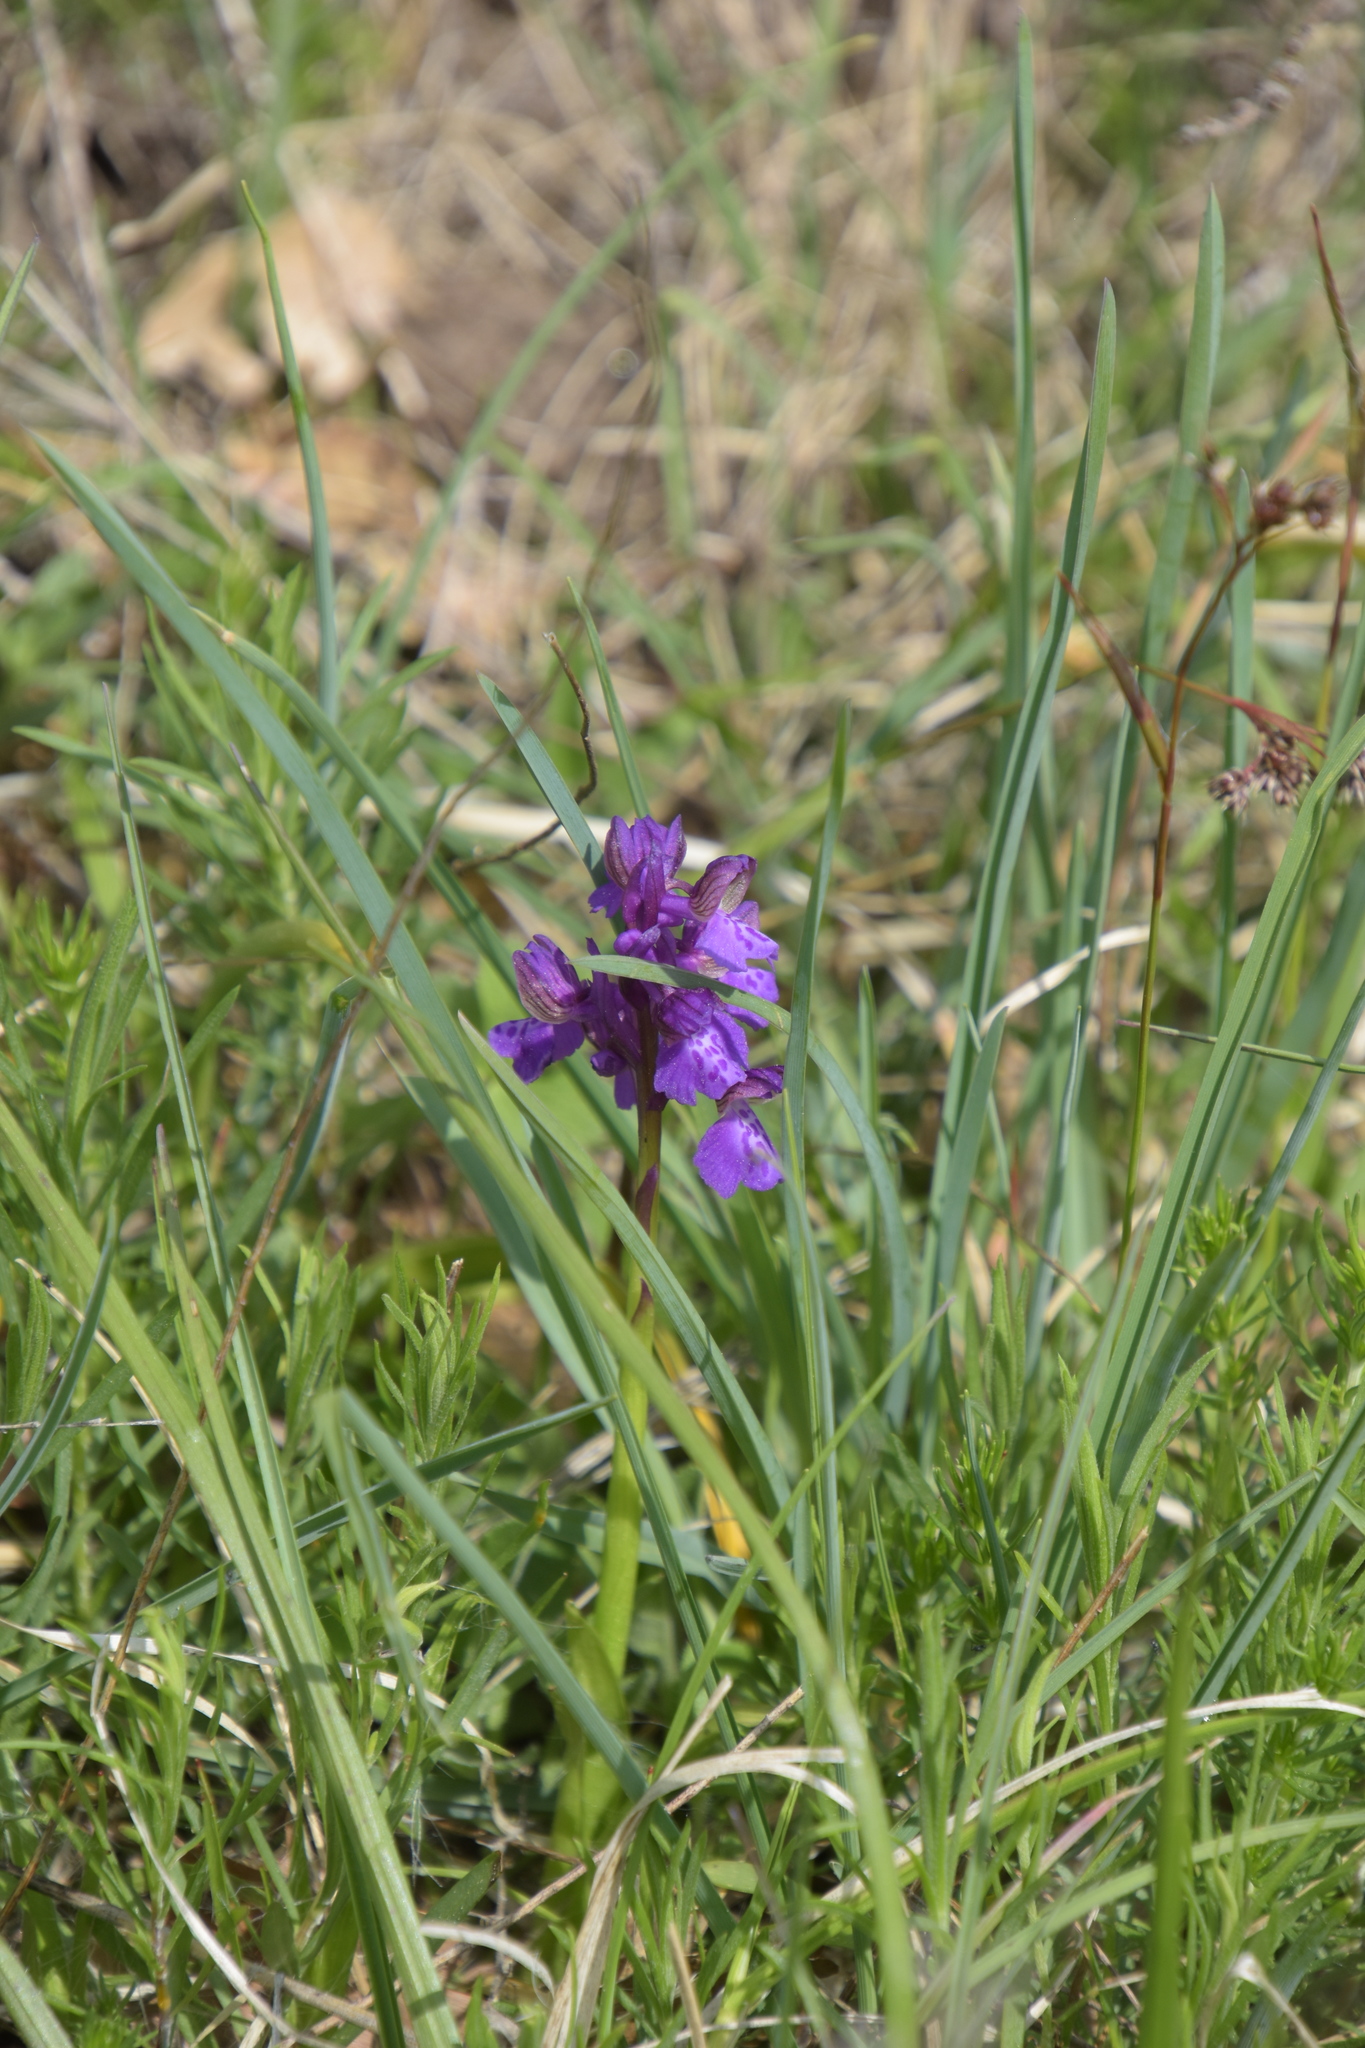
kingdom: Plantae
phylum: Tracheophyta
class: Liliopsida
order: Asparagales
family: Orchidaceae
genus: Anacamptis
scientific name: Anacamptis morio
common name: Green-winged orchid
